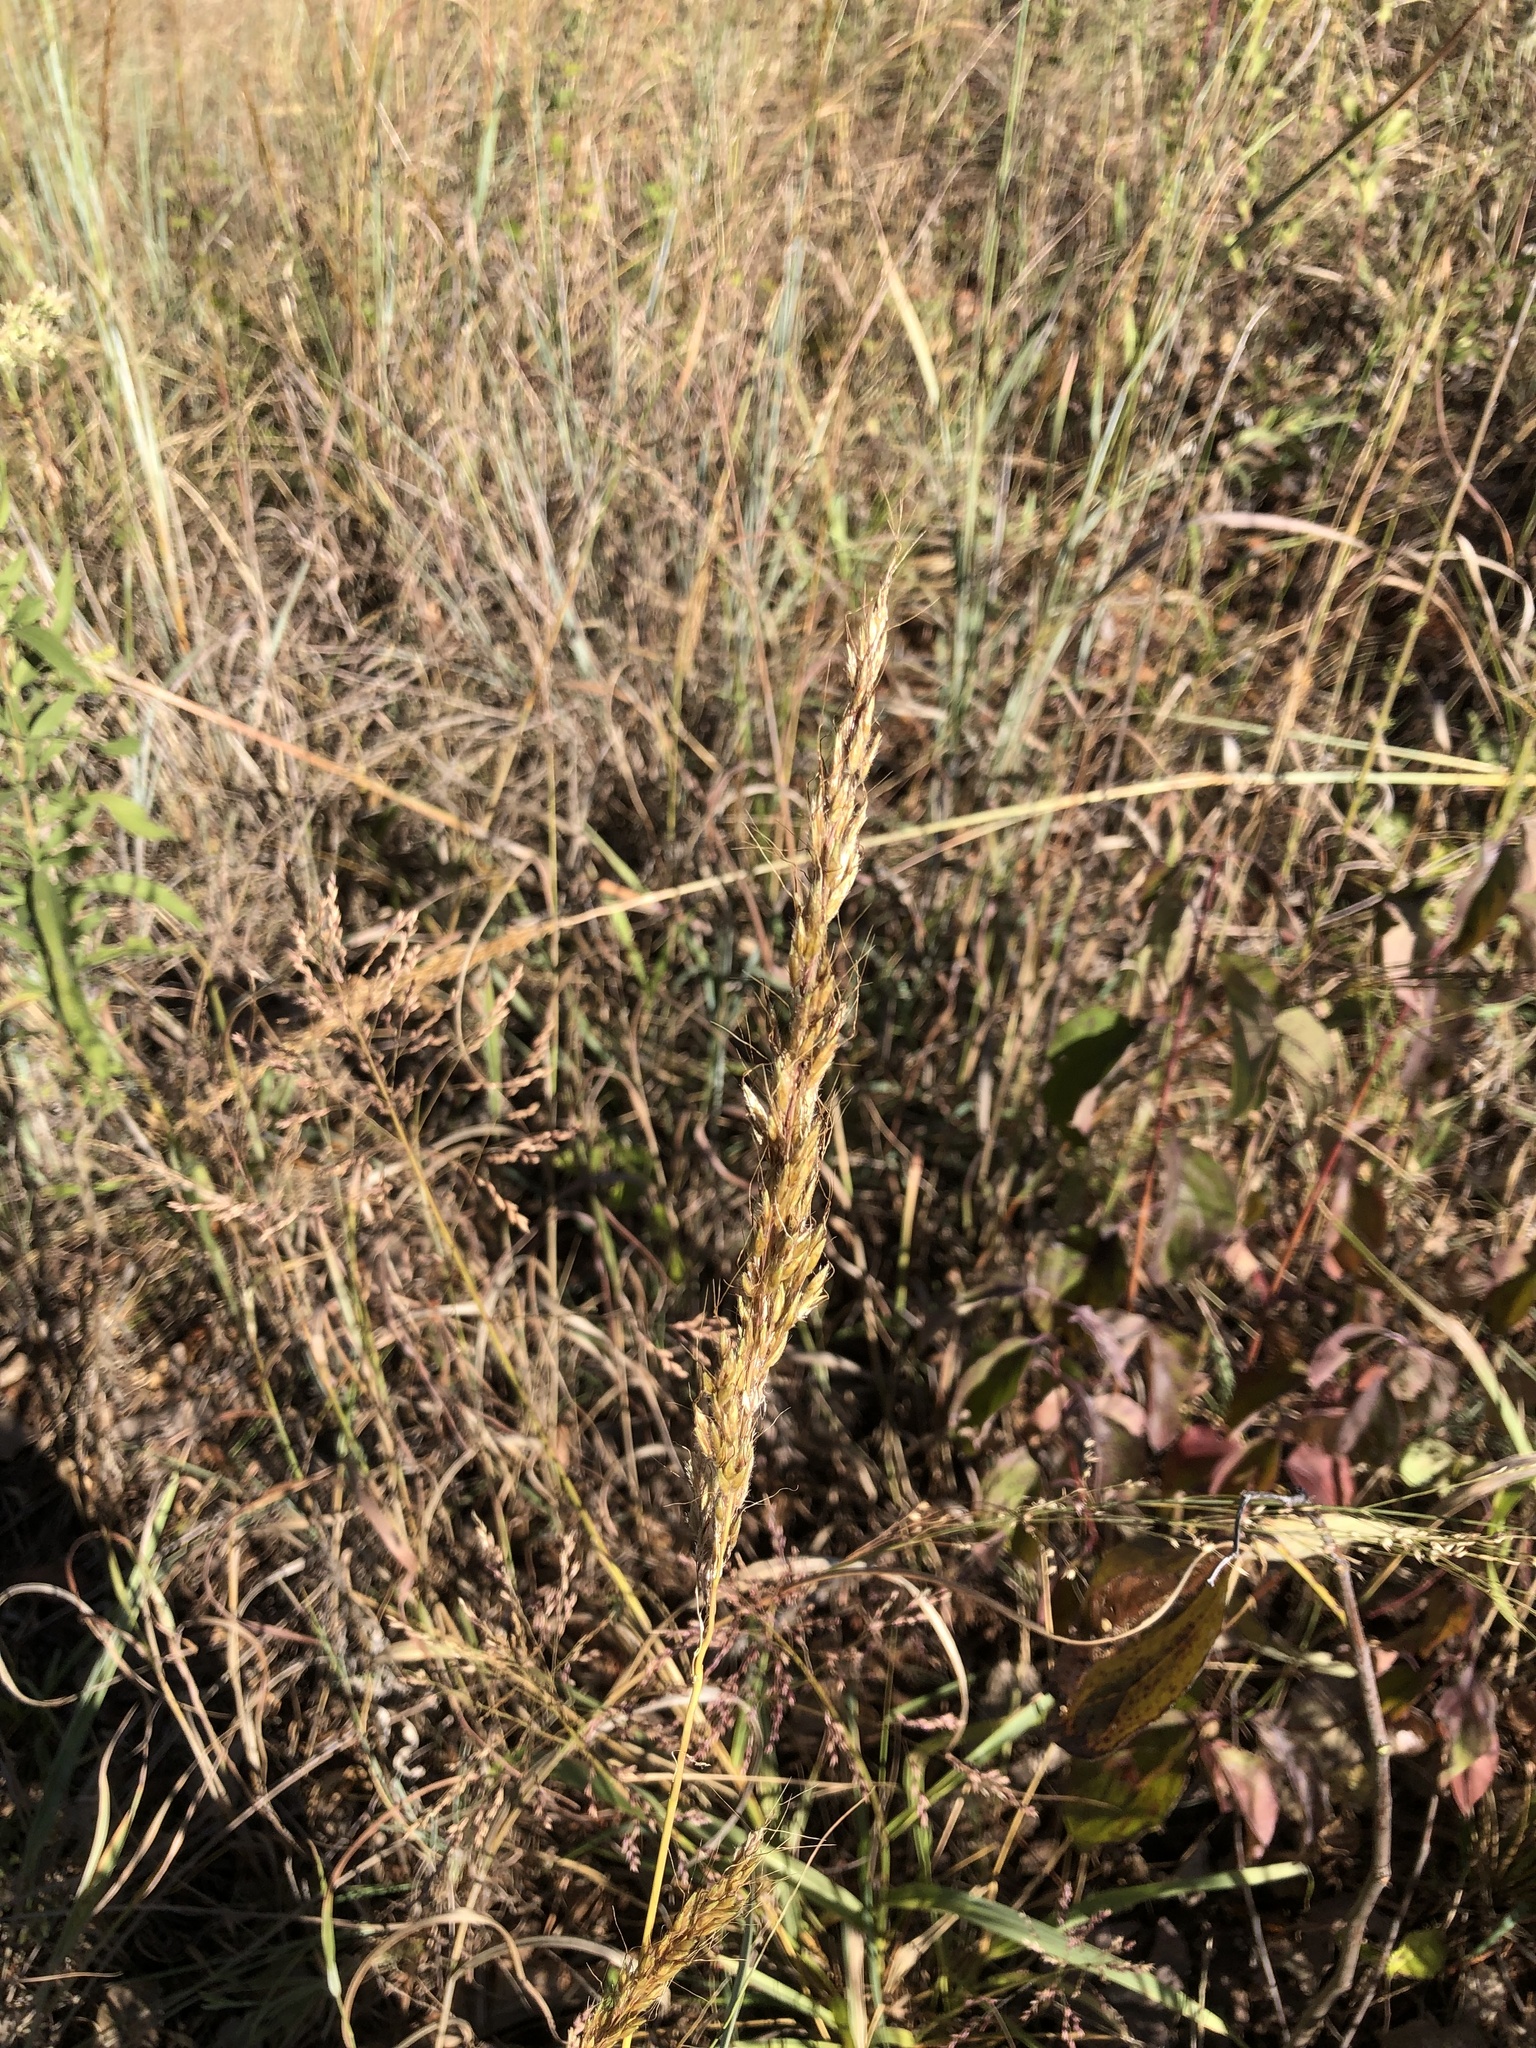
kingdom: Plantae
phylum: Tracheophyta
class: Liliopsida
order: Poales
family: Poaceae
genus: Sorghastrum
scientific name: Sorghastrum nutans
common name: Indian grass
